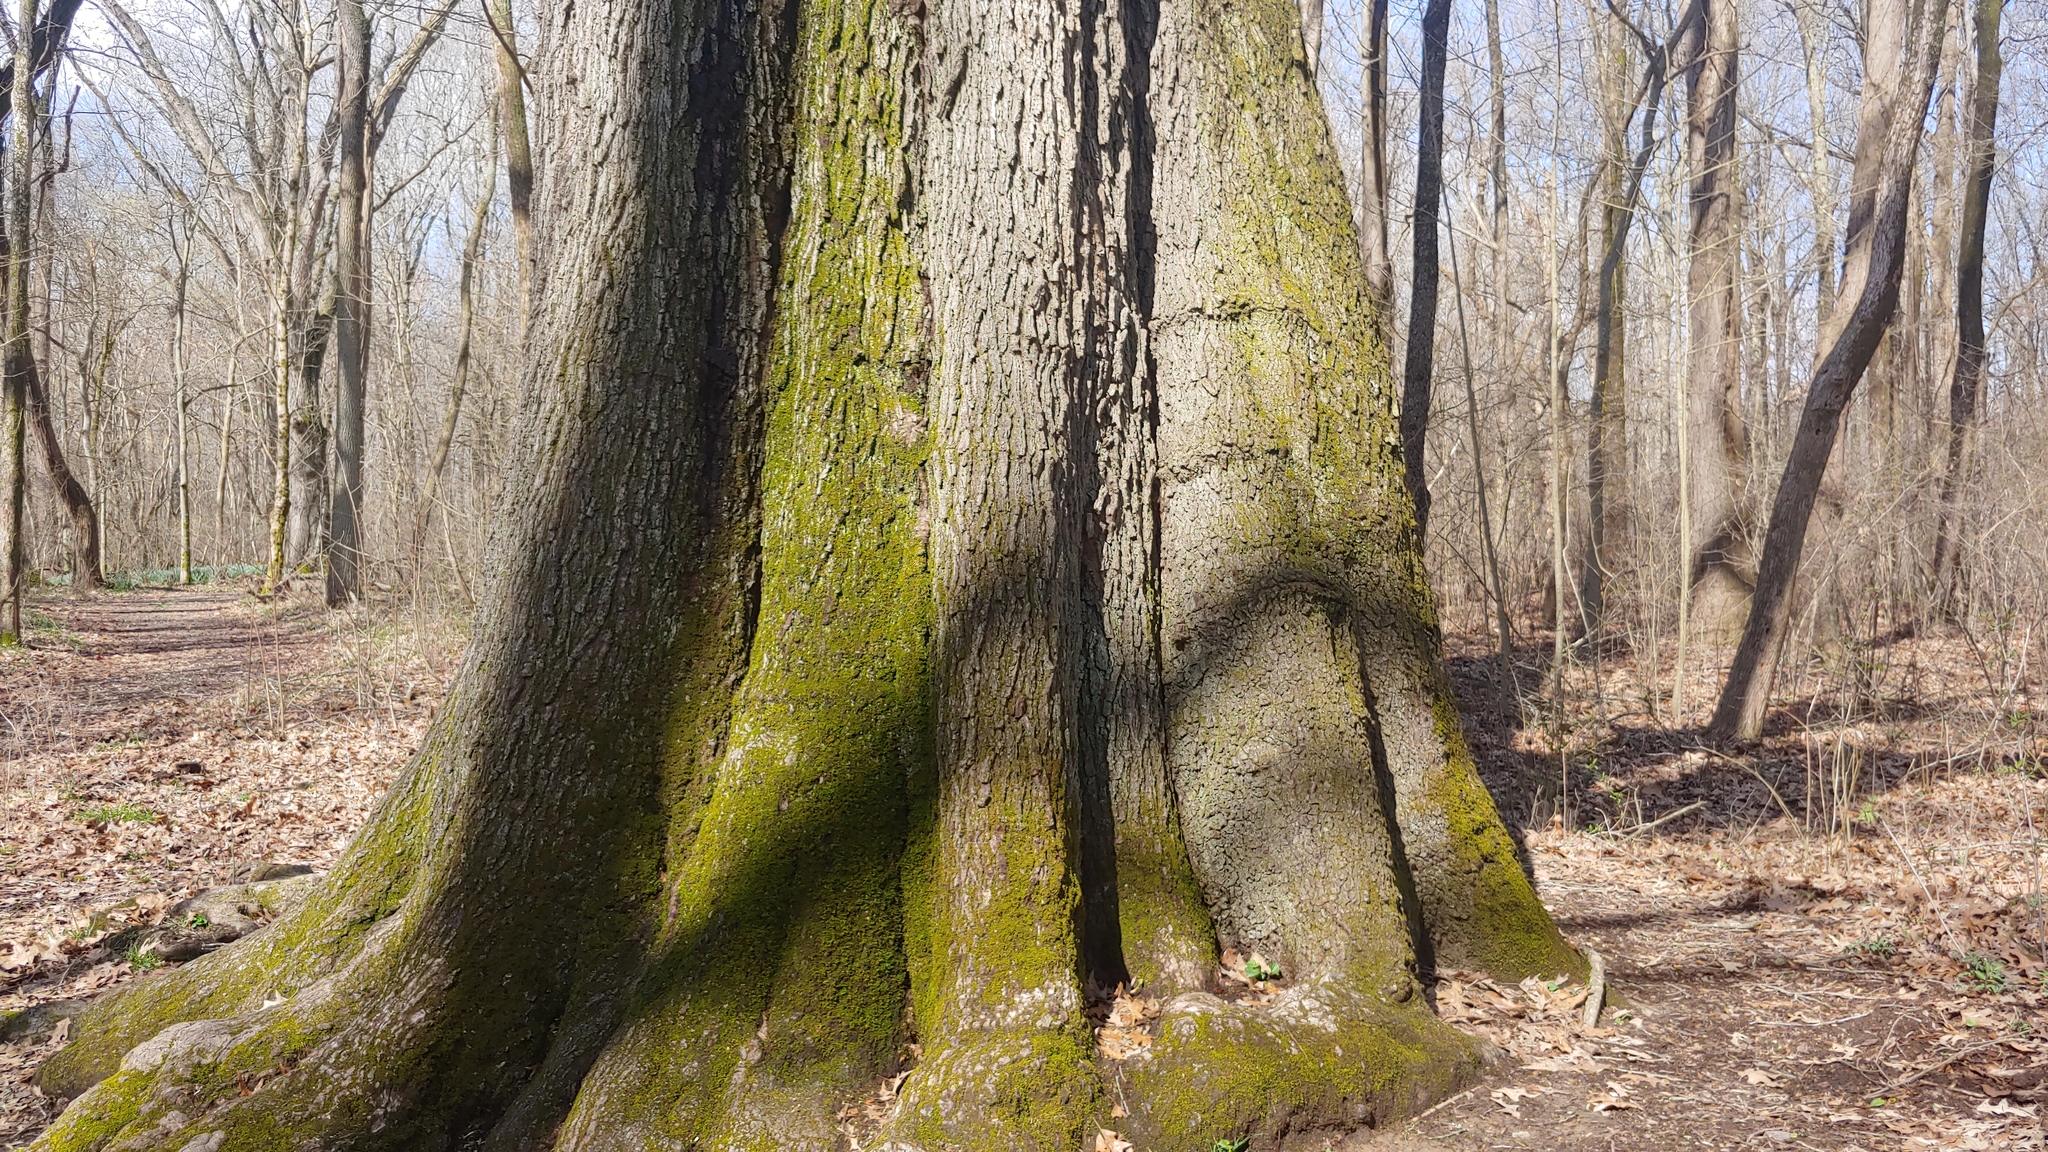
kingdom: Plantae
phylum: Tracheophyta
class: Magnoliopsida
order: Fagales
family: Fagaceae
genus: Quercus
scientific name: Quercus pagoda
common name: Cherrybark oak
